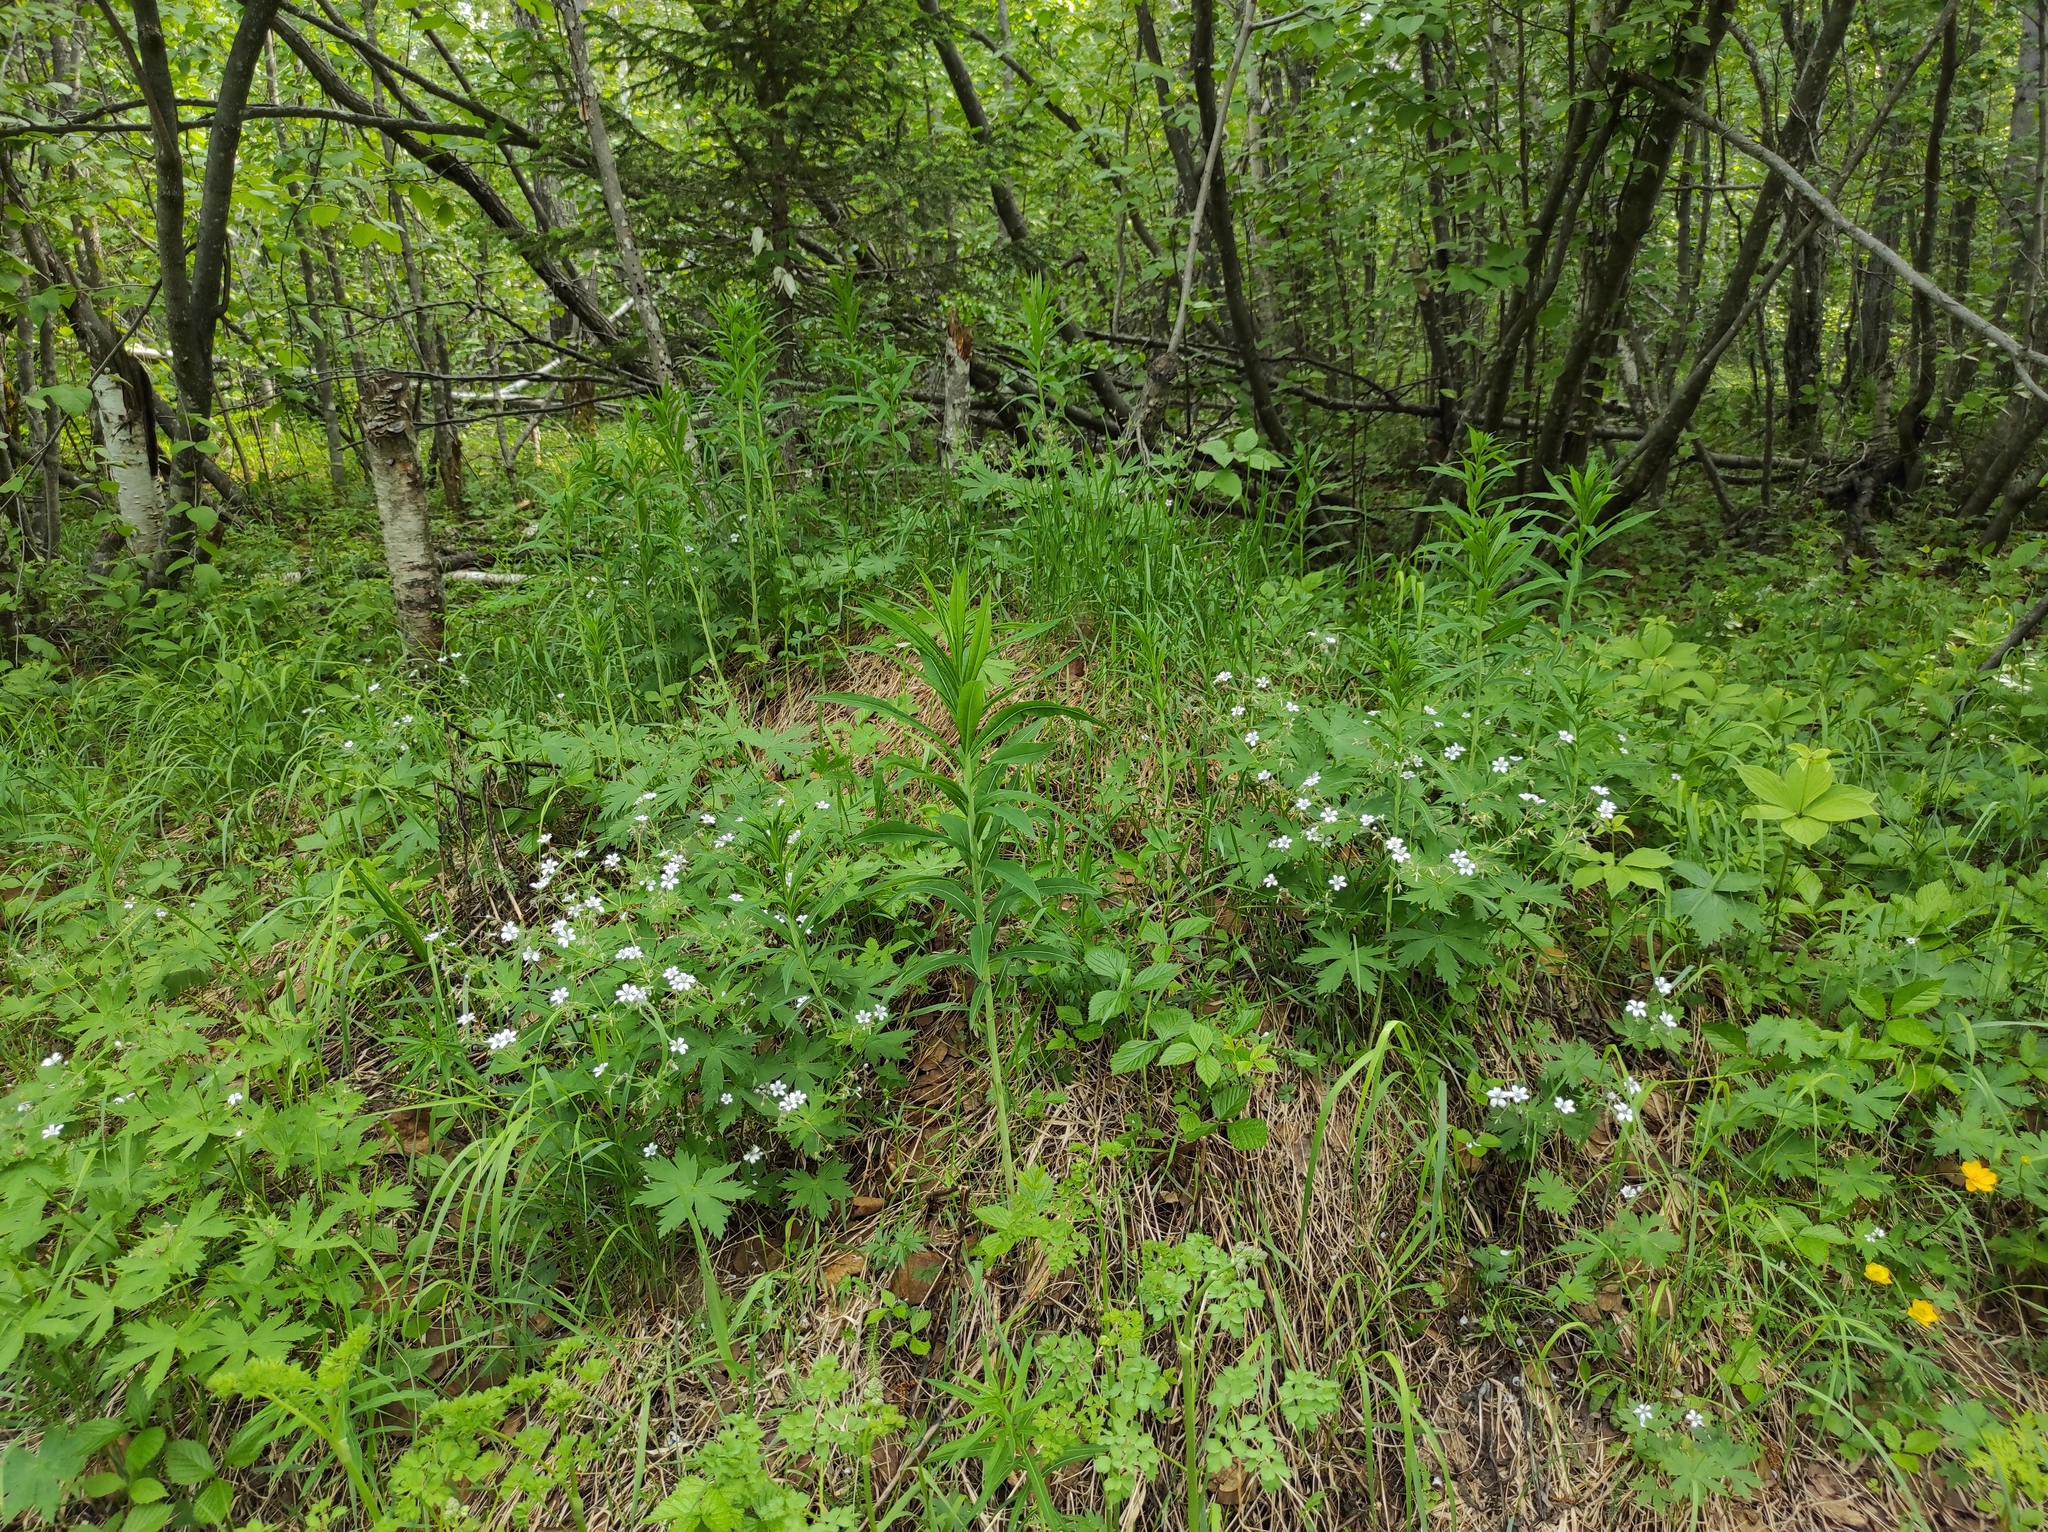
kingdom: Plantae
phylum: Tracheophyta
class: Magnoliopsida
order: Myrtales
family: Onagraceae
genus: Chamaenerion
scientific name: Chamaenerion angustifolium
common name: Fireweed
